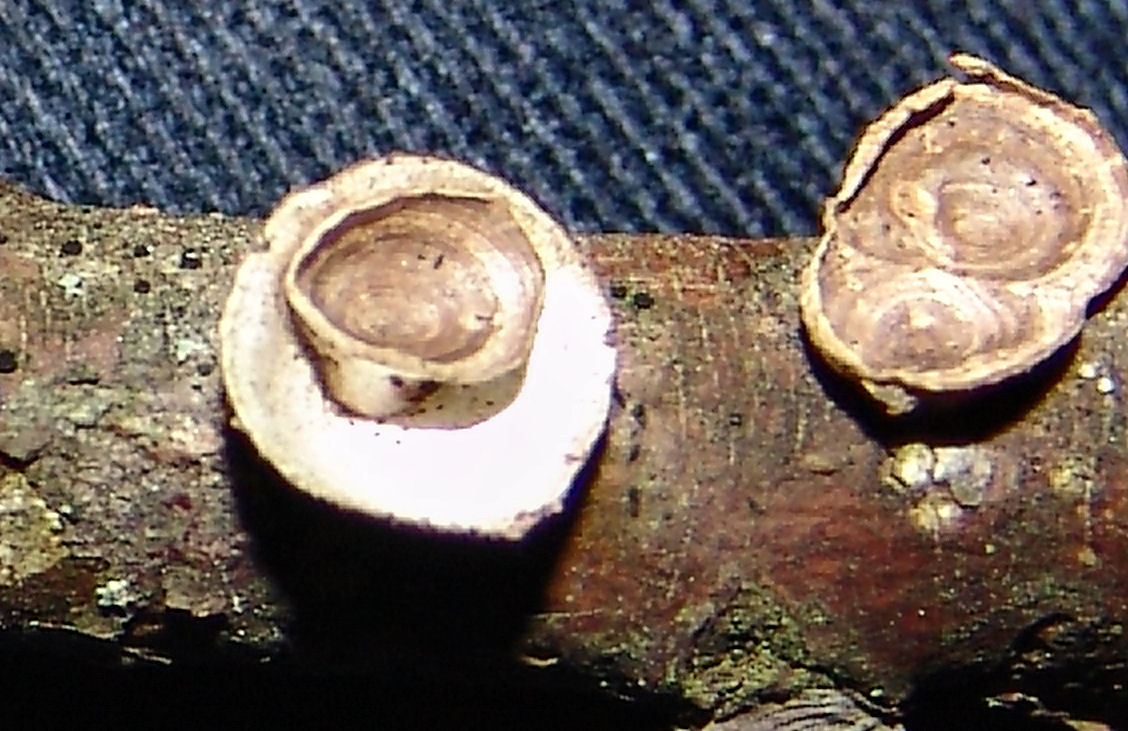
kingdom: Fungi
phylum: Basidiomycota
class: Agaricomycetes
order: Polyporales
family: Polyporaceae
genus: Poronidulus
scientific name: Poronidulus conchifer
